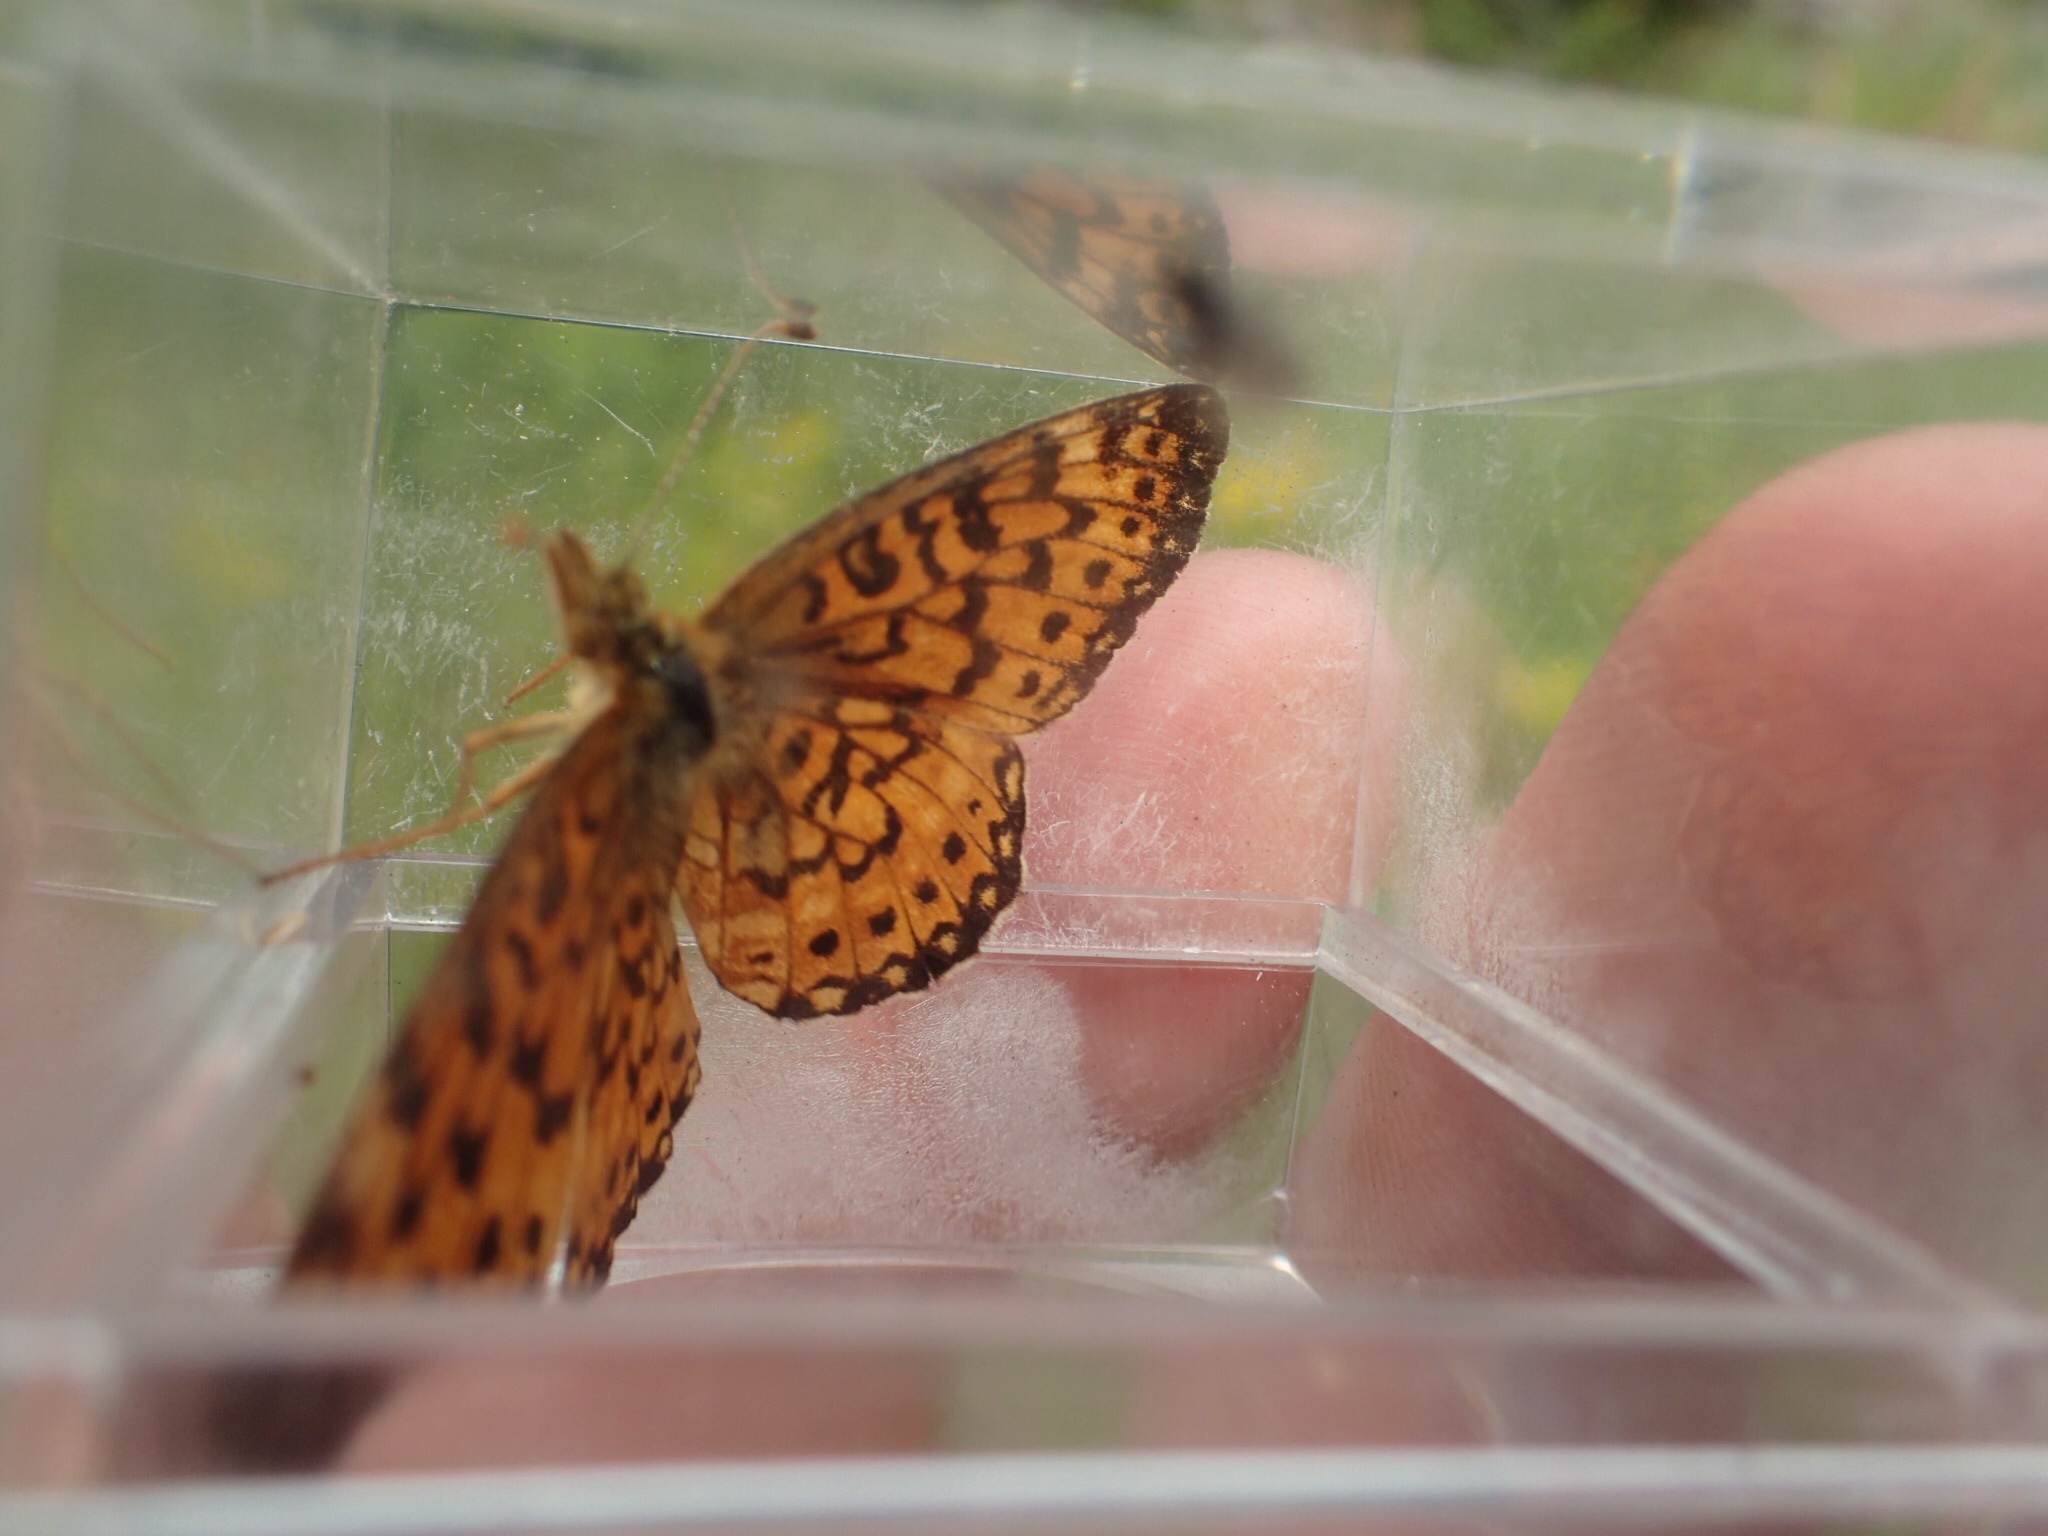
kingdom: Animalia
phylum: Arthropoda
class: Insecta
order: Lepidoptera
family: Nymphalidae
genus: Boloria
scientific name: Boloria
